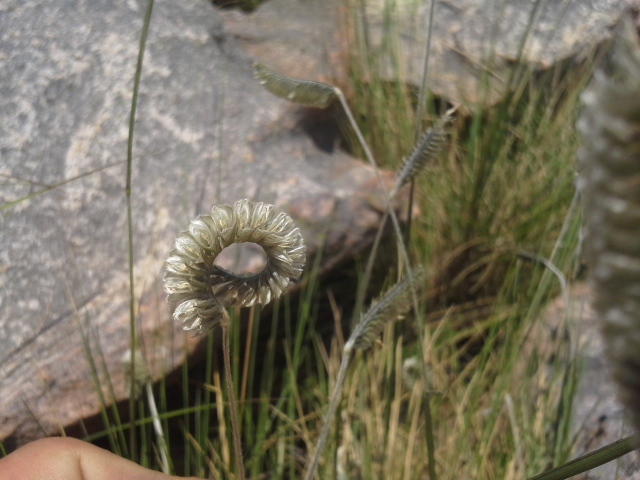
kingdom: Plantae
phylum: Tracheophyta
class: Liliopsida
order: Poales
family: Poaceae
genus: Harpochloa
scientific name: Harpochloa falx
